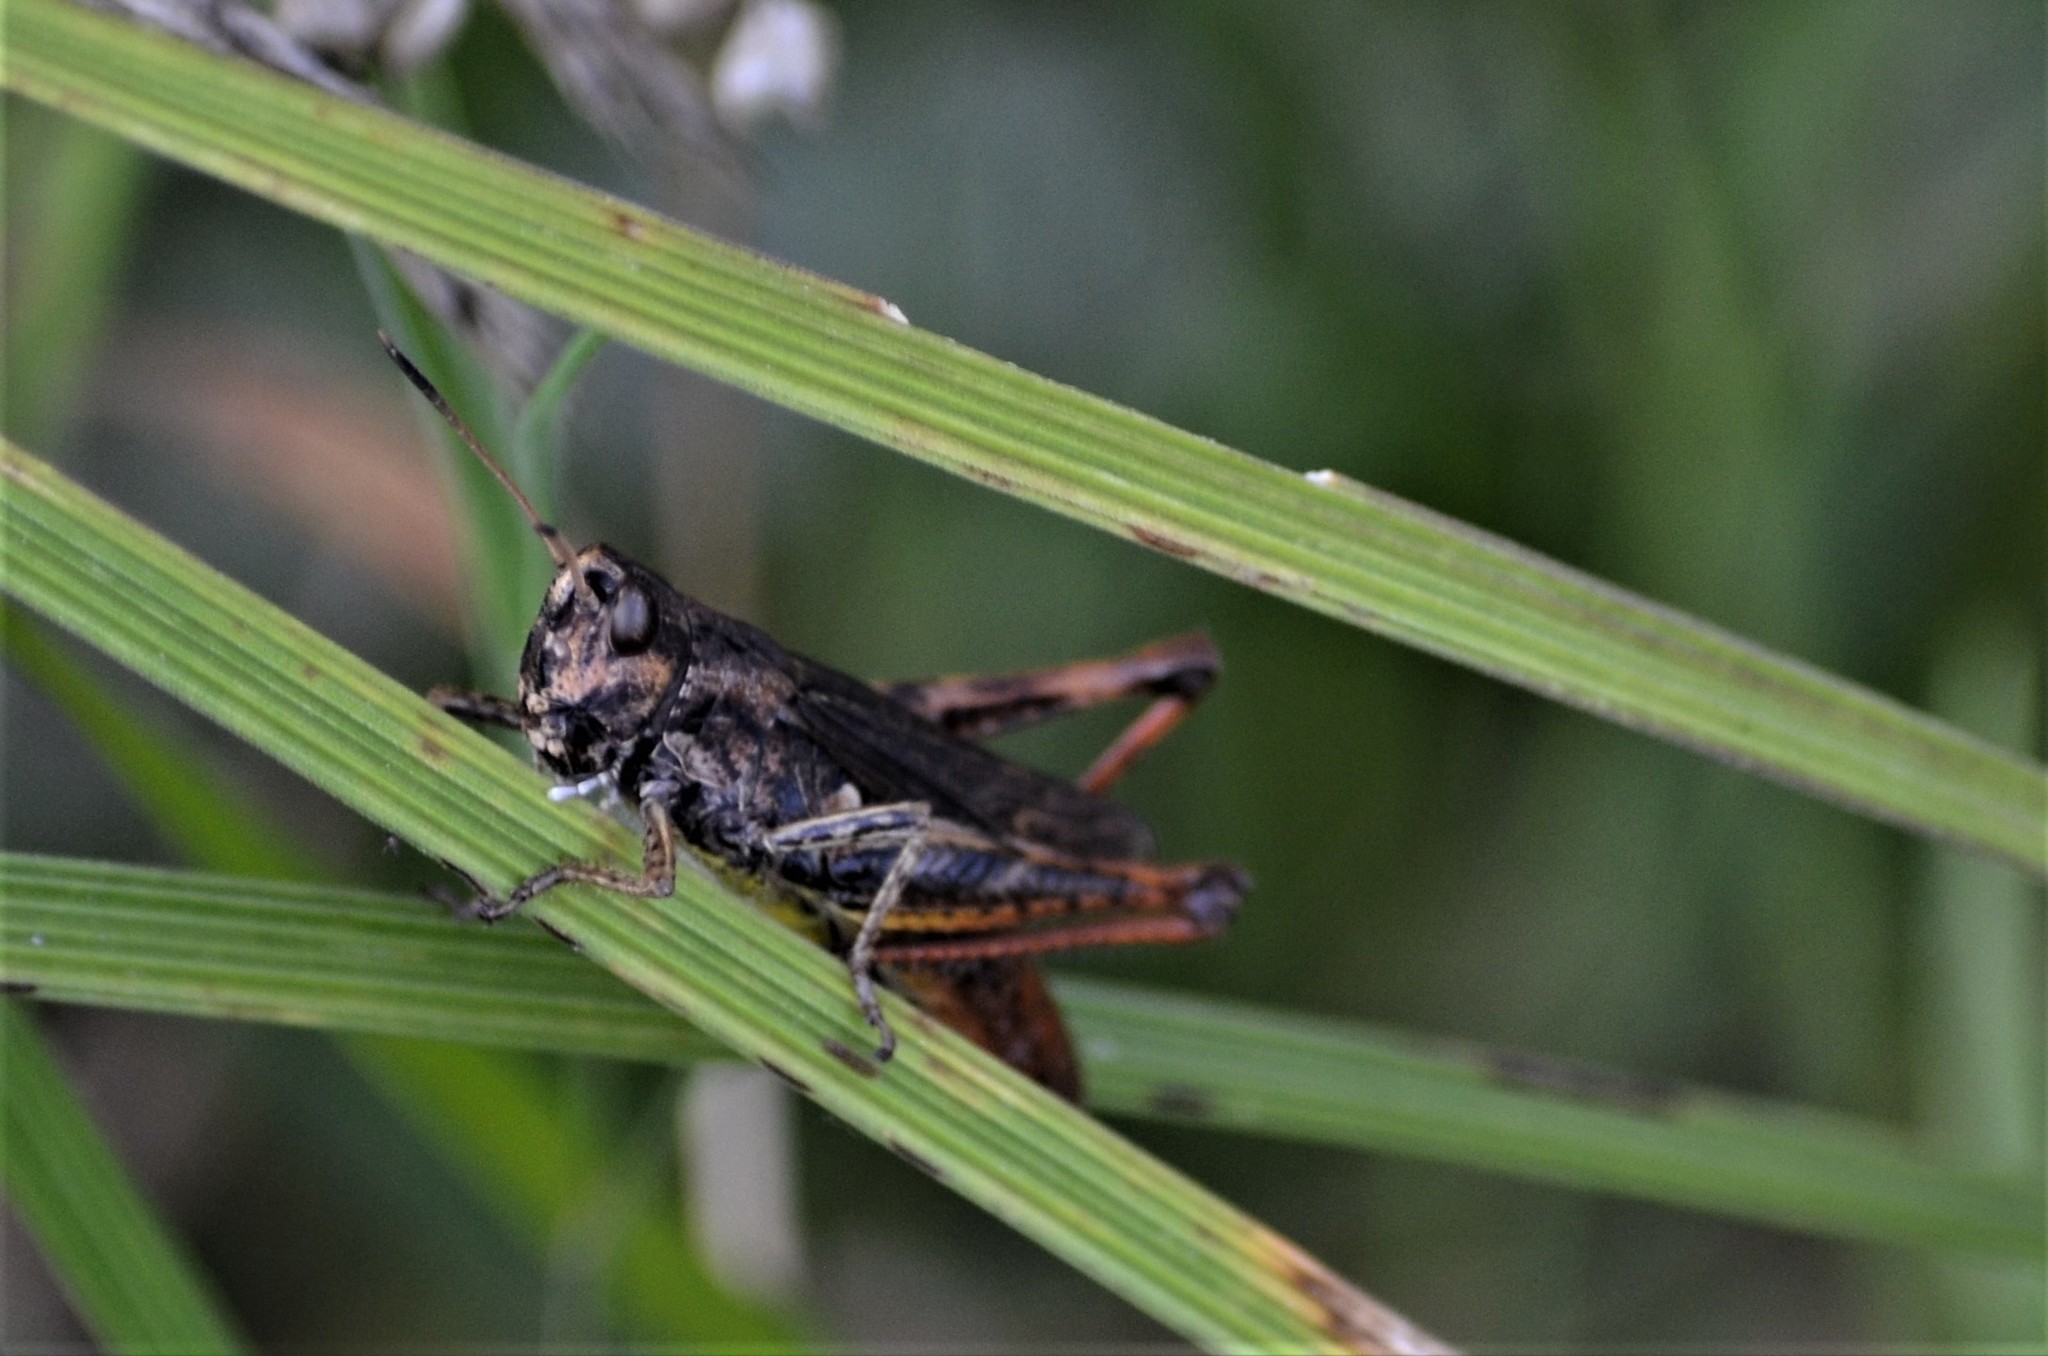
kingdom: Animalia
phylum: Arthropoda
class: Insecta
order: Orthoptera
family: Acrididae
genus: Gomphocerippus
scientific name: Gomphocerippus rufus
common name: Rufous grasshopper
